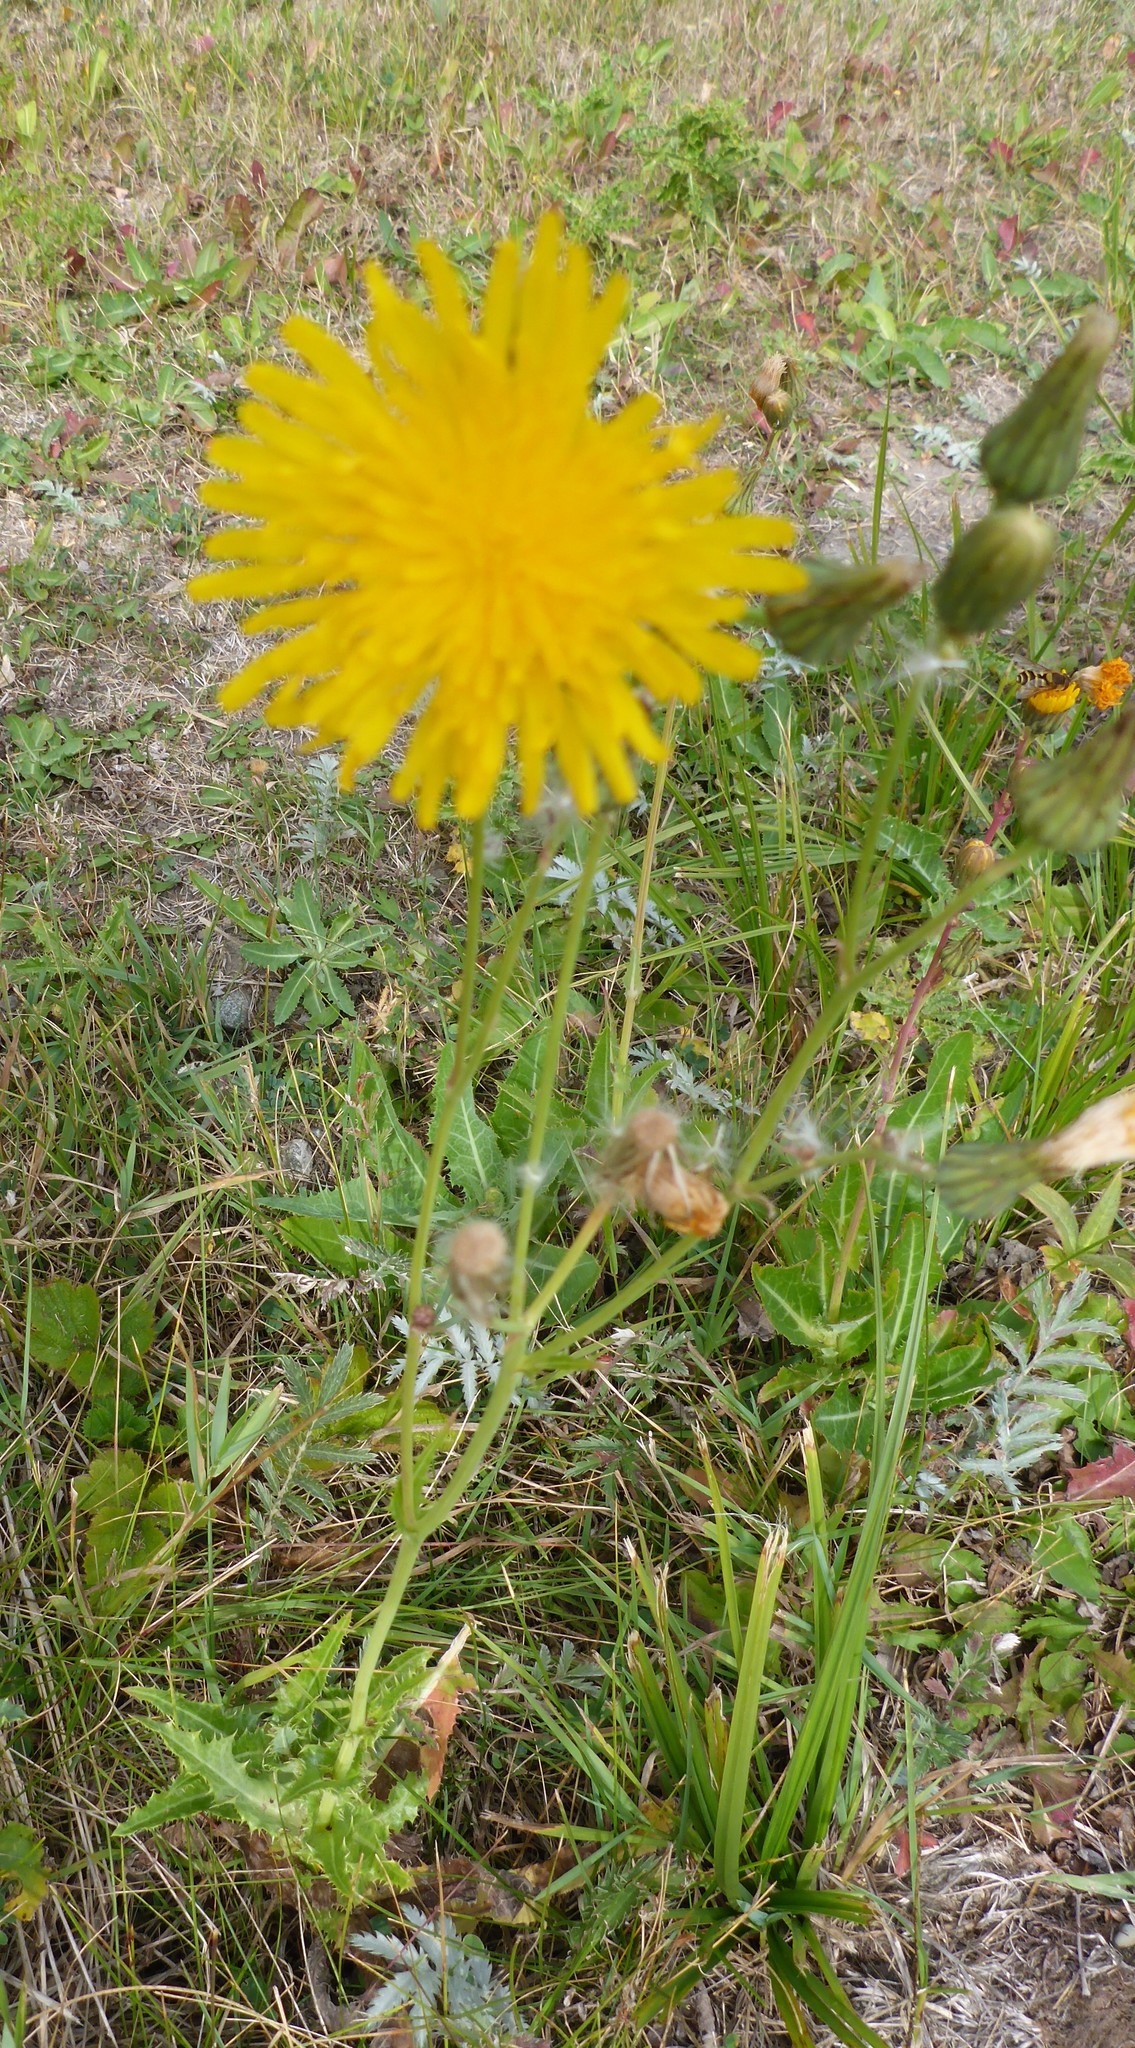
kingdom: Plantae
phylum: Tracheophyta
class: Magnoliopsida
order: Asterales
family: Asteraceae
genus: Sonchus
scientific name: Sonchus arvensis
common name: Perennial sow-thistle
